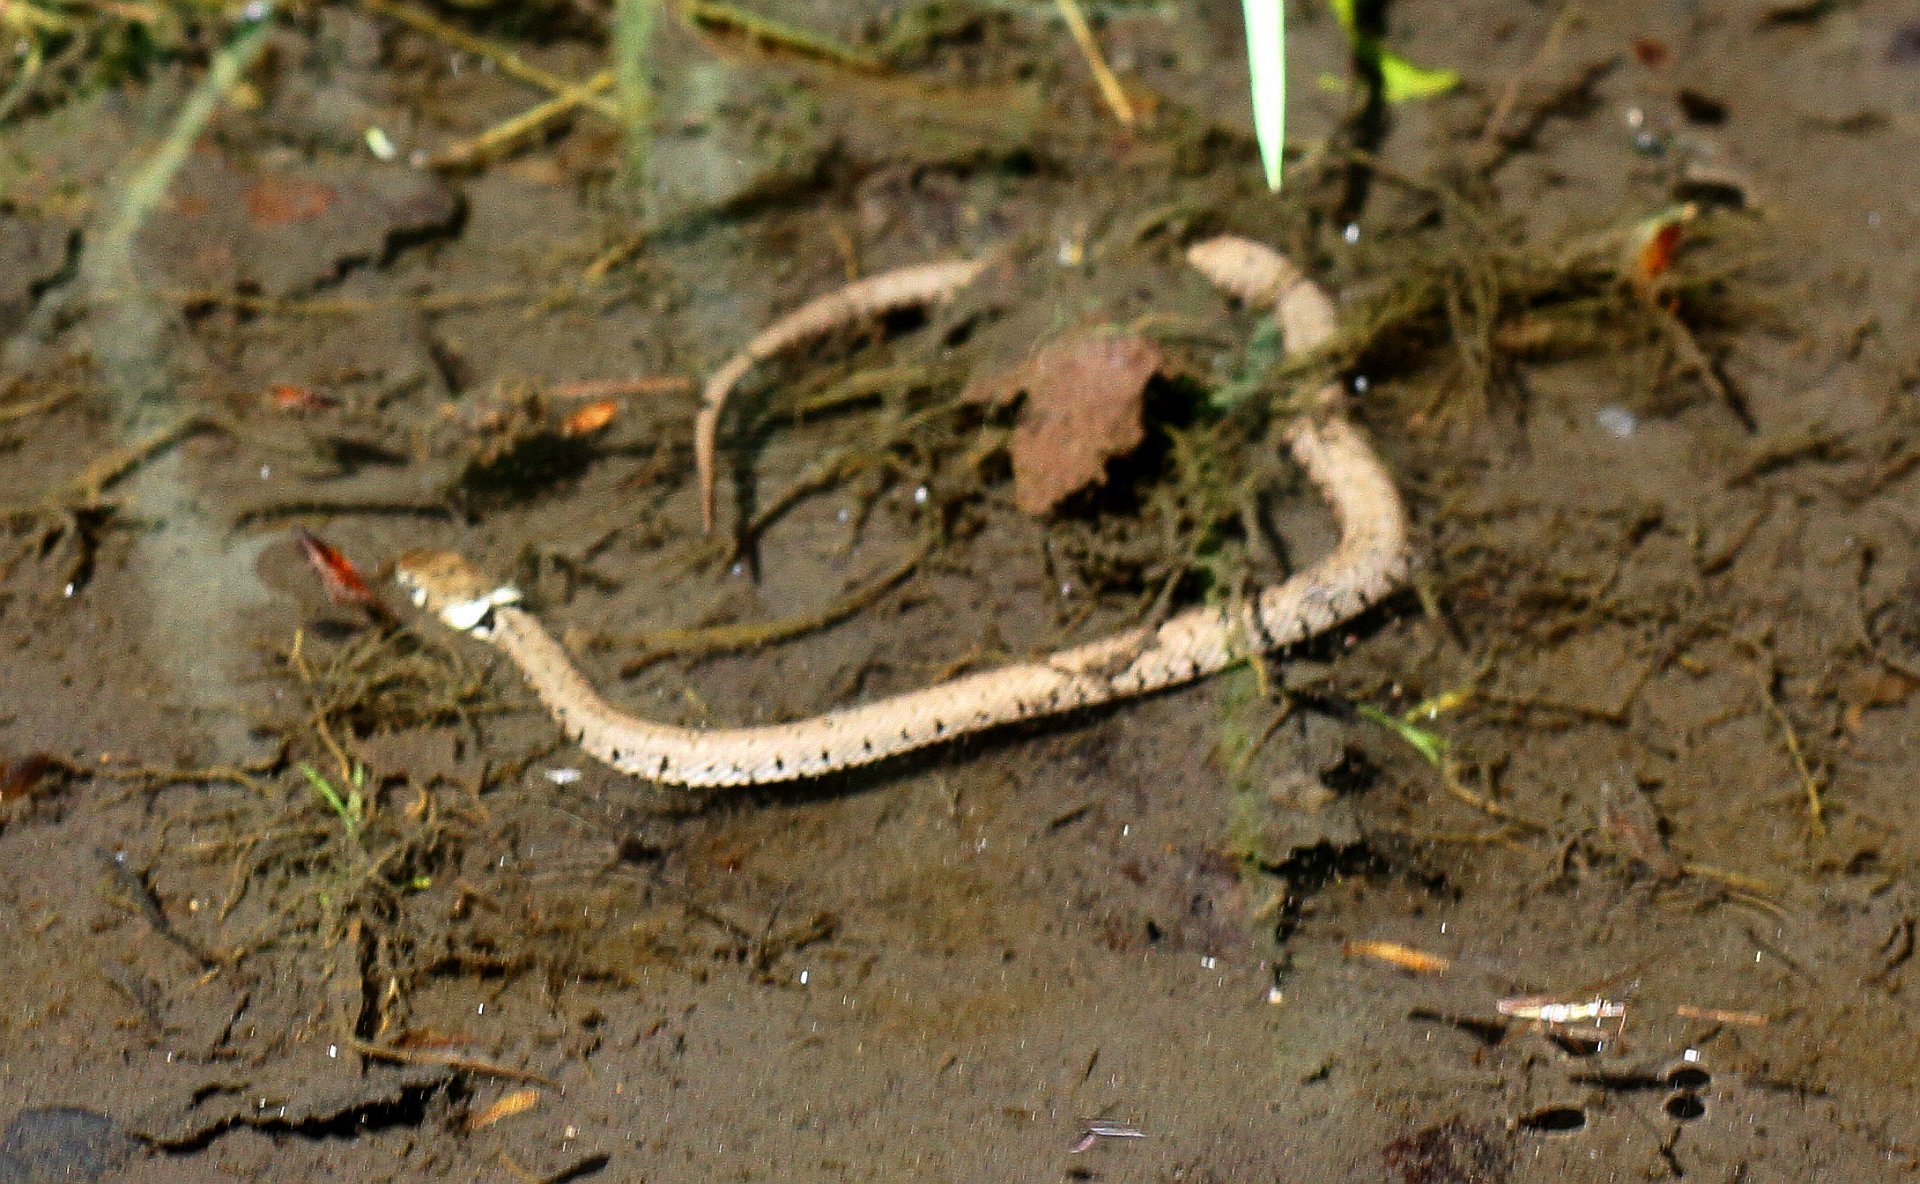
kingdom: Animalia
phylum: Chordata
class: Squamata
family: Colubridae
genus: Natrix
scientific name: Natrix helvetica
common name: Banded grass snake
